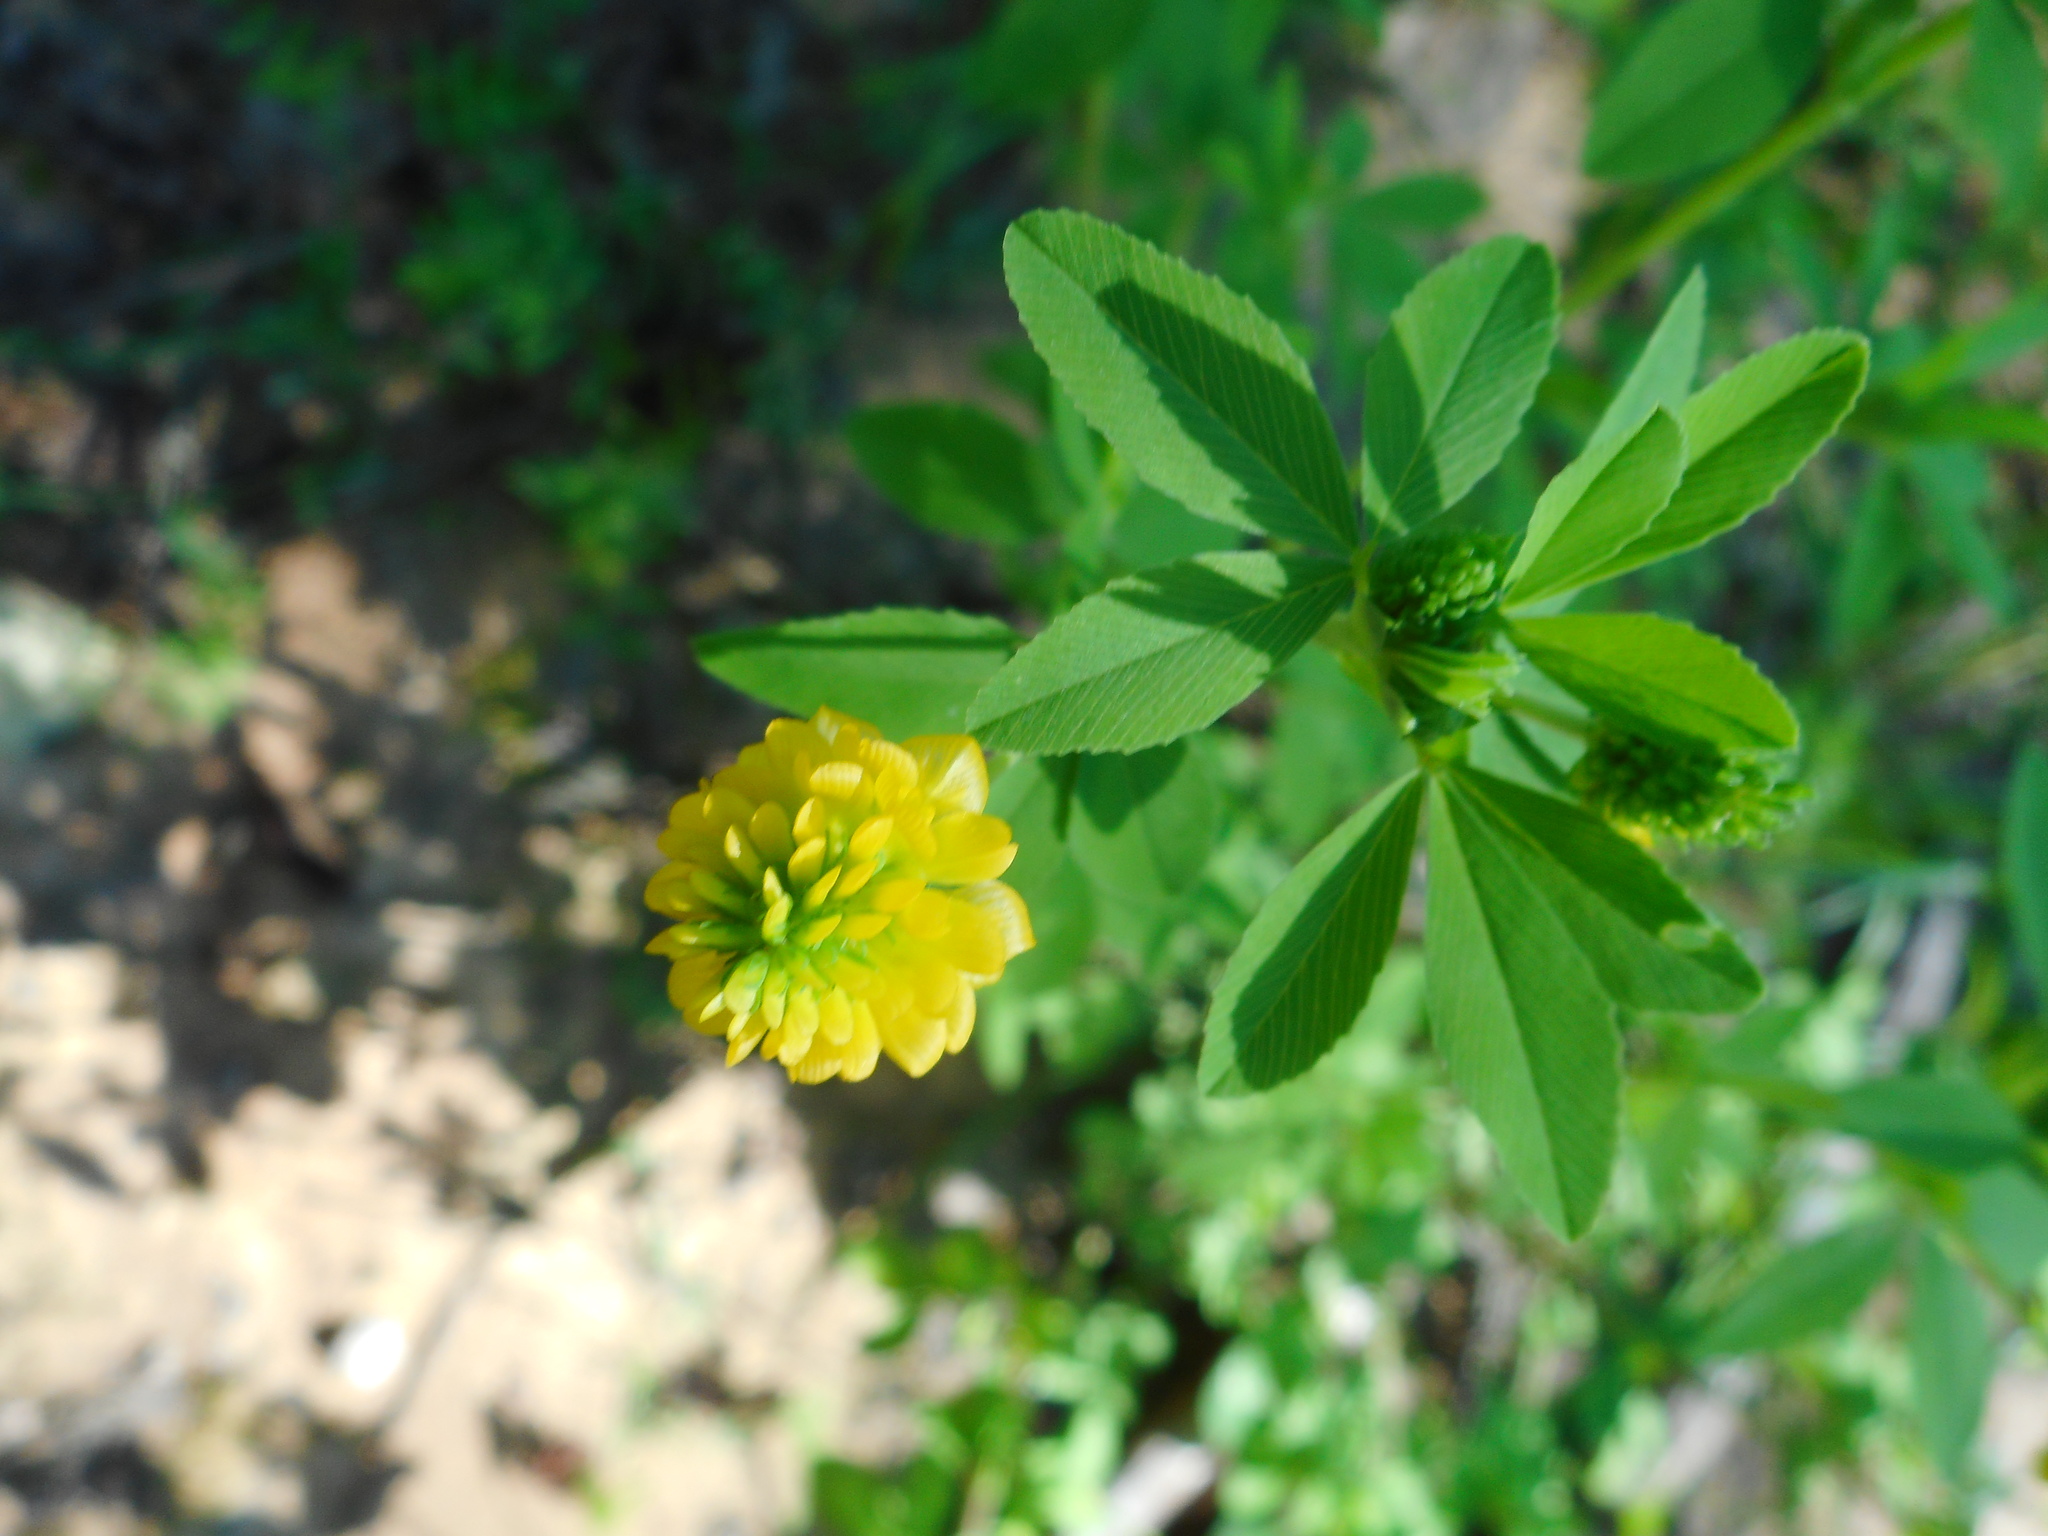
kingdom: Plantae
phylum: Tracheophyta
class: Magnoliopsida
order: Fabales
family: Fabaceae
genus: Trifolium
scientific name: Trifolium aureum
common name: Golden clover
